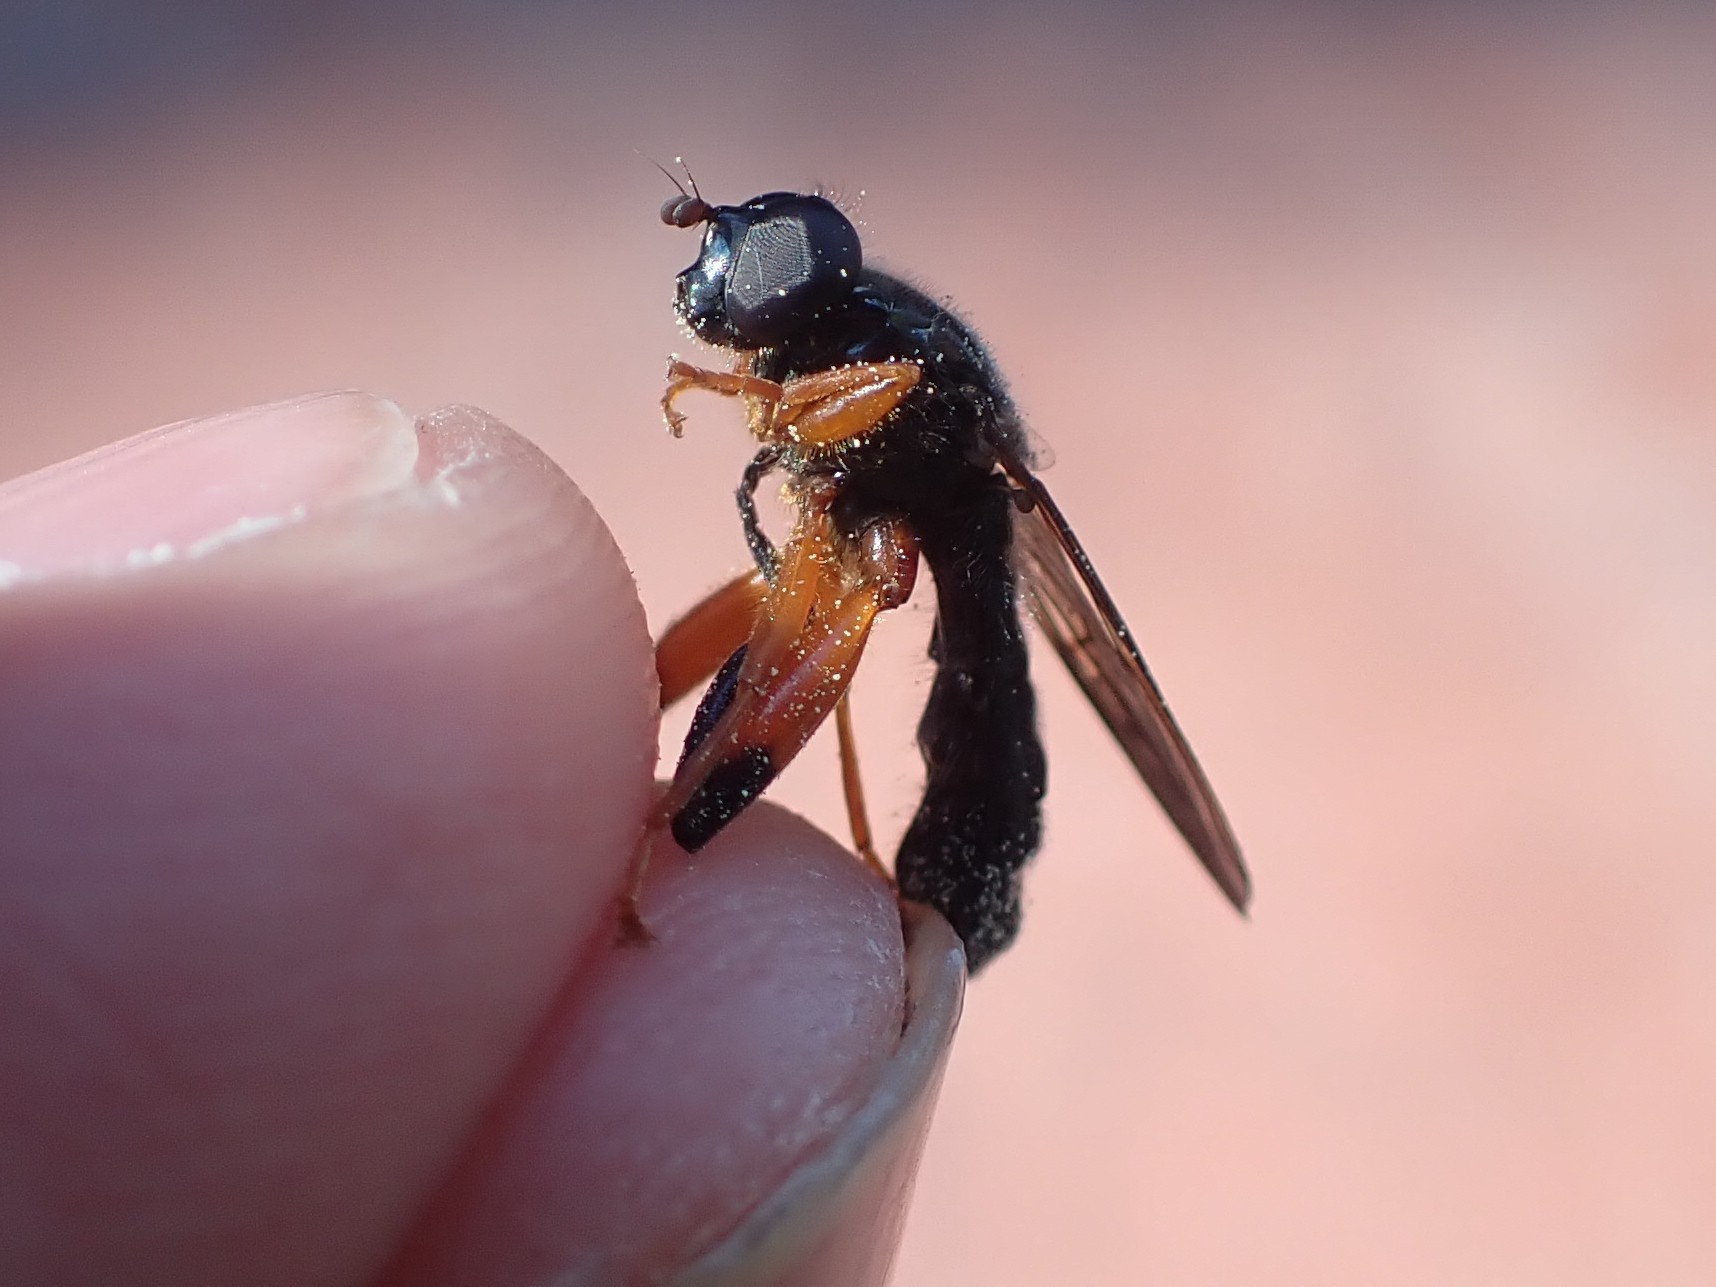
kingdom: Animalia
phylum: Arthropoda
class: Insecta
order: Diptera
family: Syrphidae
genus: Chalcosyrphus
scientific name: Chalcosyrphus vecors
